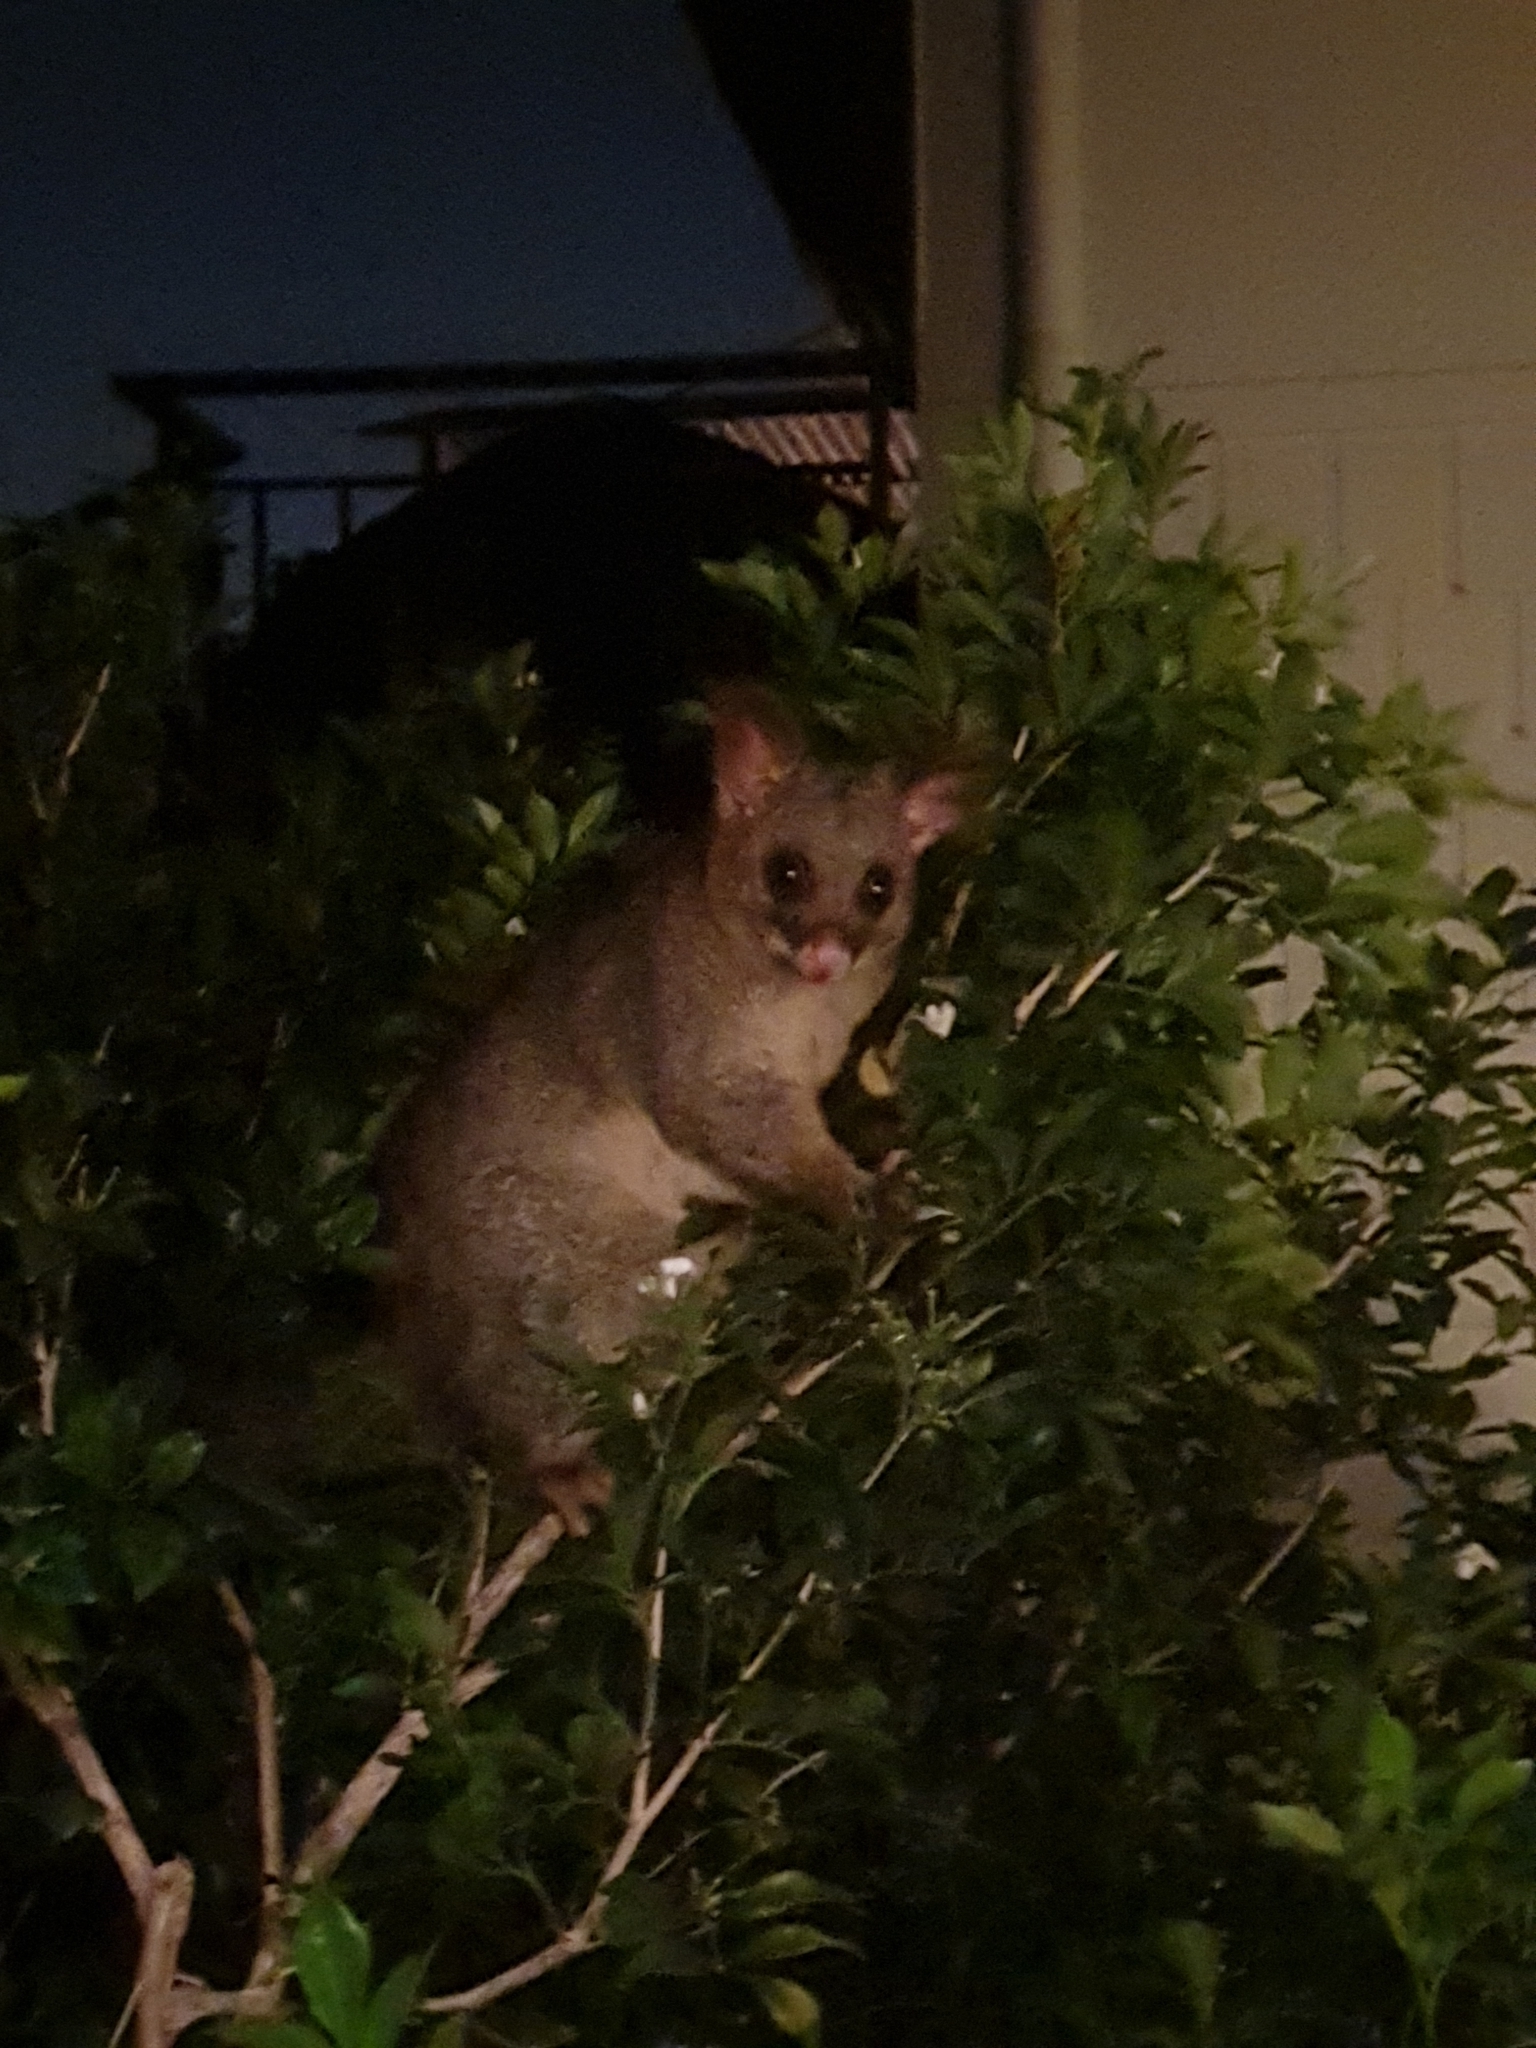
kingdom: Animalia
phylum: Chordata
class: Mammalia
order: Diprotodontia
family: Phalangeridae
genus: Trichosurus
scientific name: Trichosurus vulpecula
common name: Common brushtail
